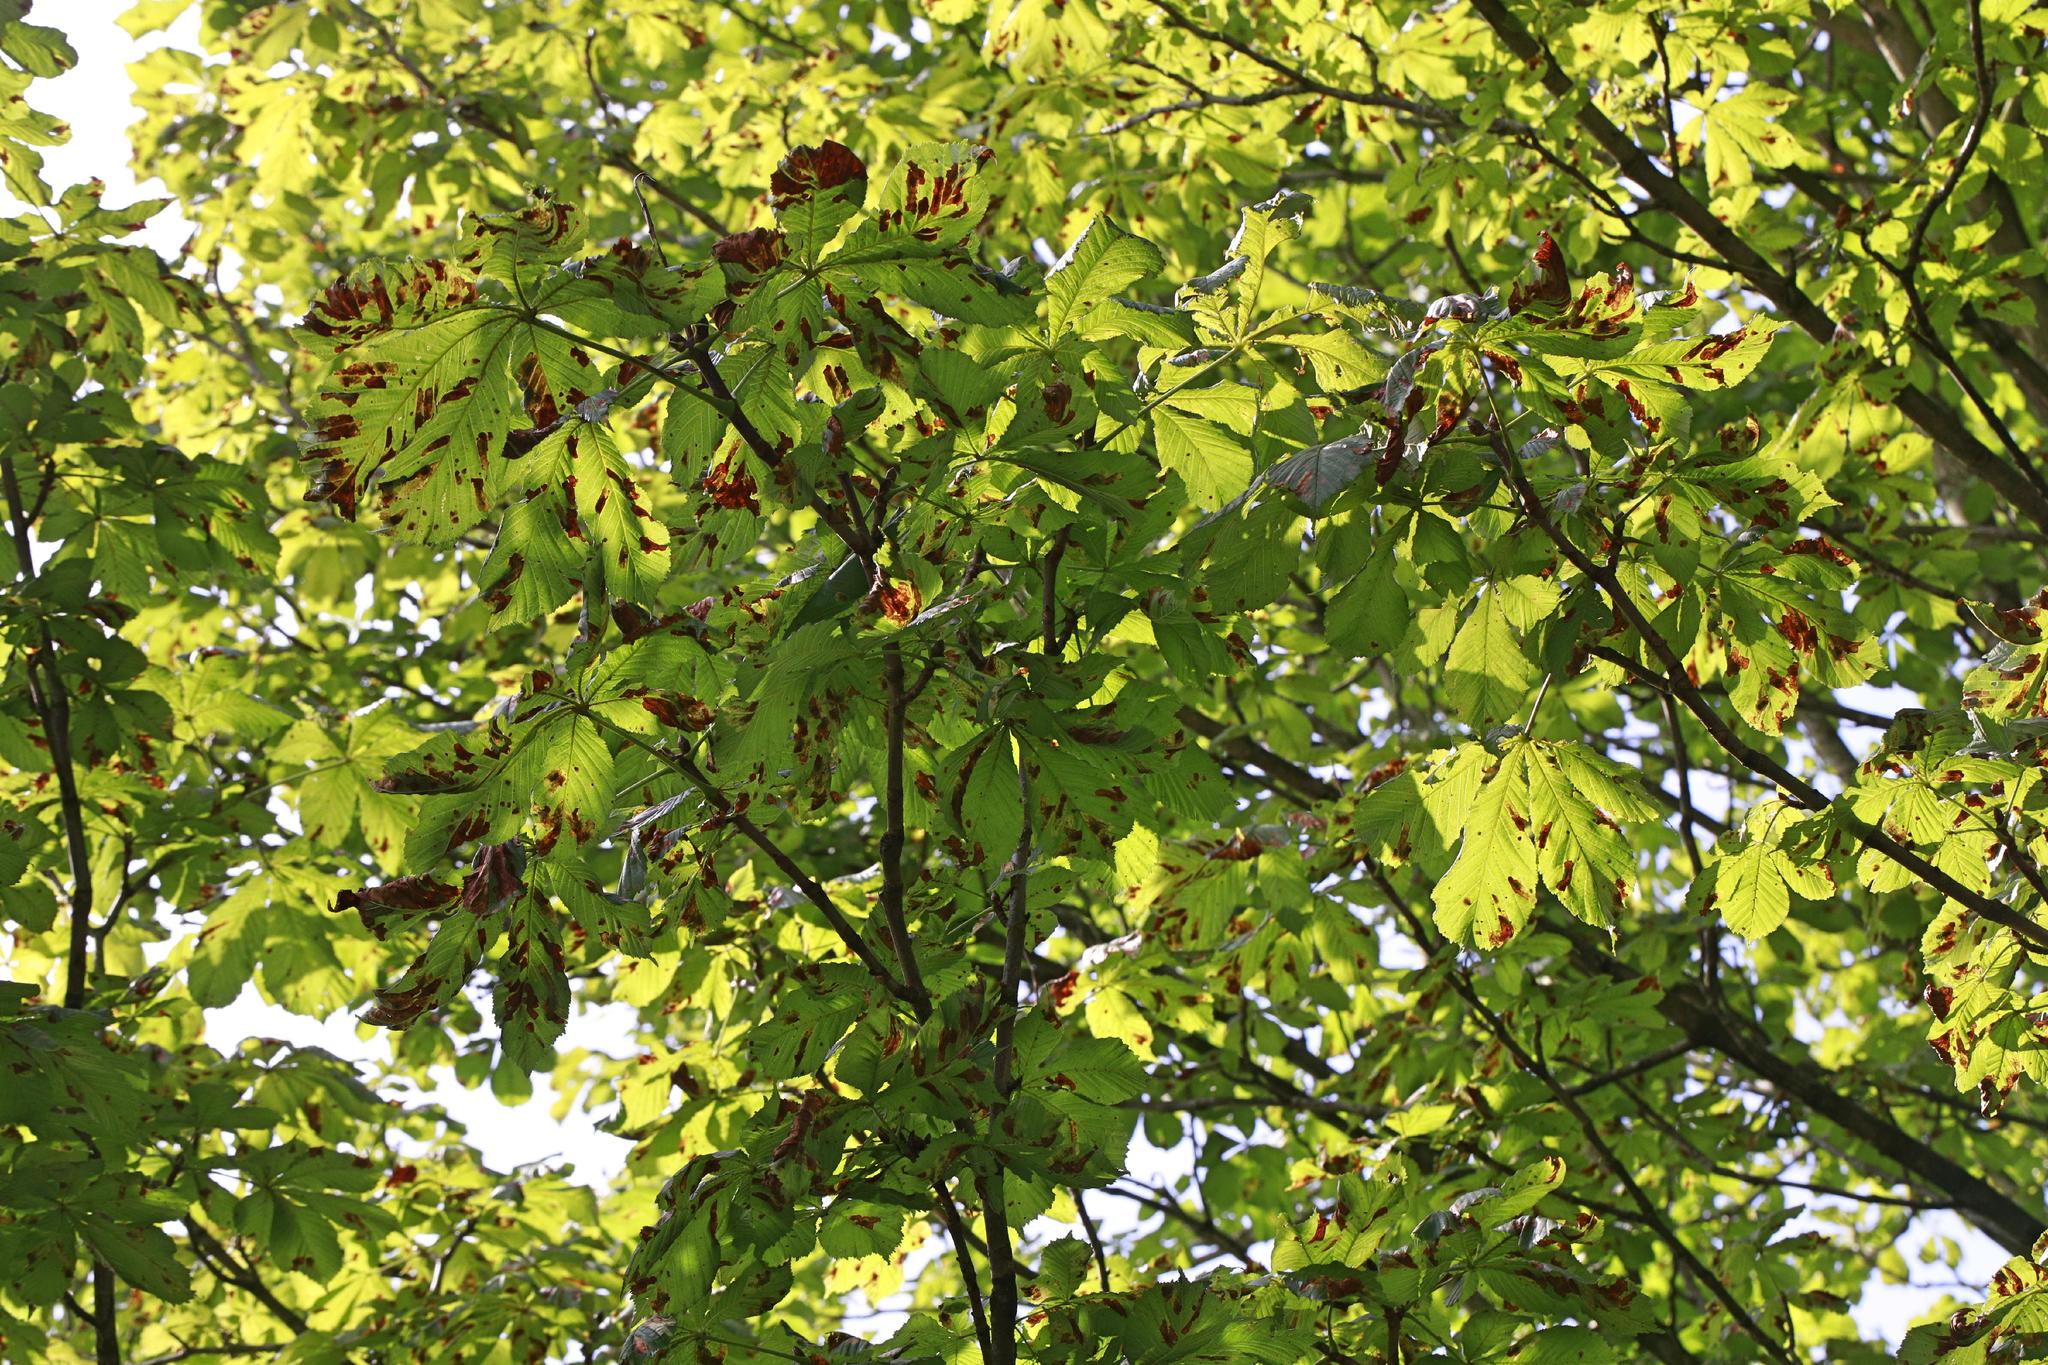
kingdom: Animalia
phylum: Arthropoda
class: Insecta
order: Lepidoptera
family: Gracillariidae
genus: Cameraria
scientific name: Cameraria ohridella
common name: Horse-chestnut leaf-miner
